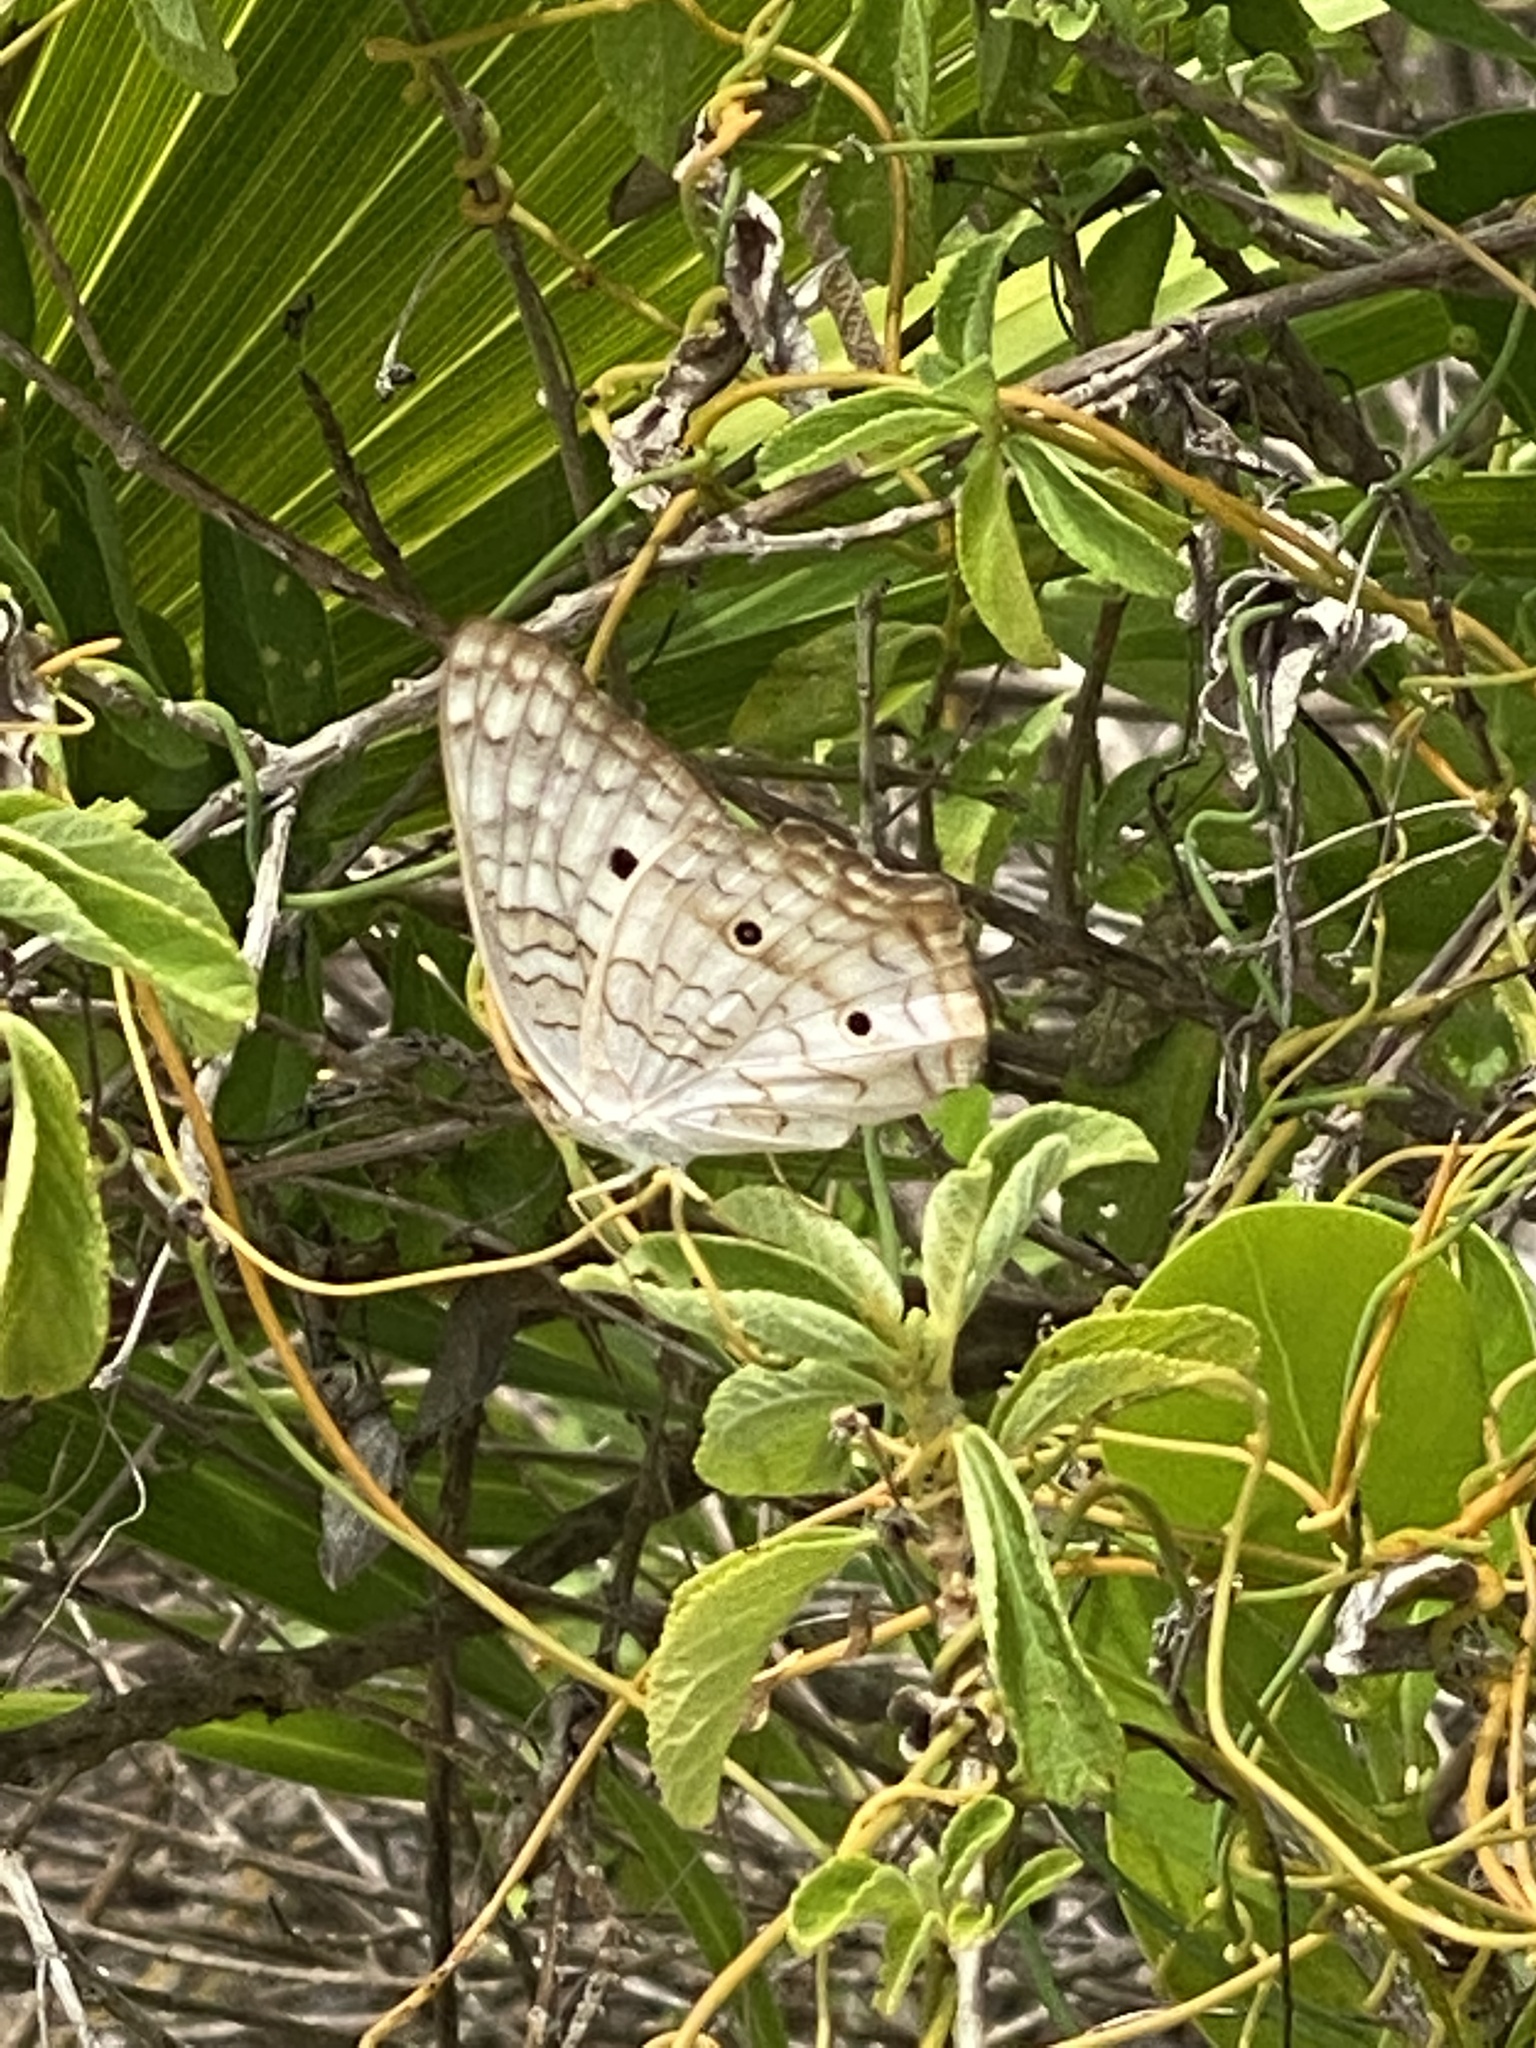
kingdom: Animalia
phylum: Arthropoda
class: Insecta
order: Lepidoptera
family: Nymphalidae
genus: Anartia
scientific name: Anartia jatrophae
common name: White peacock
